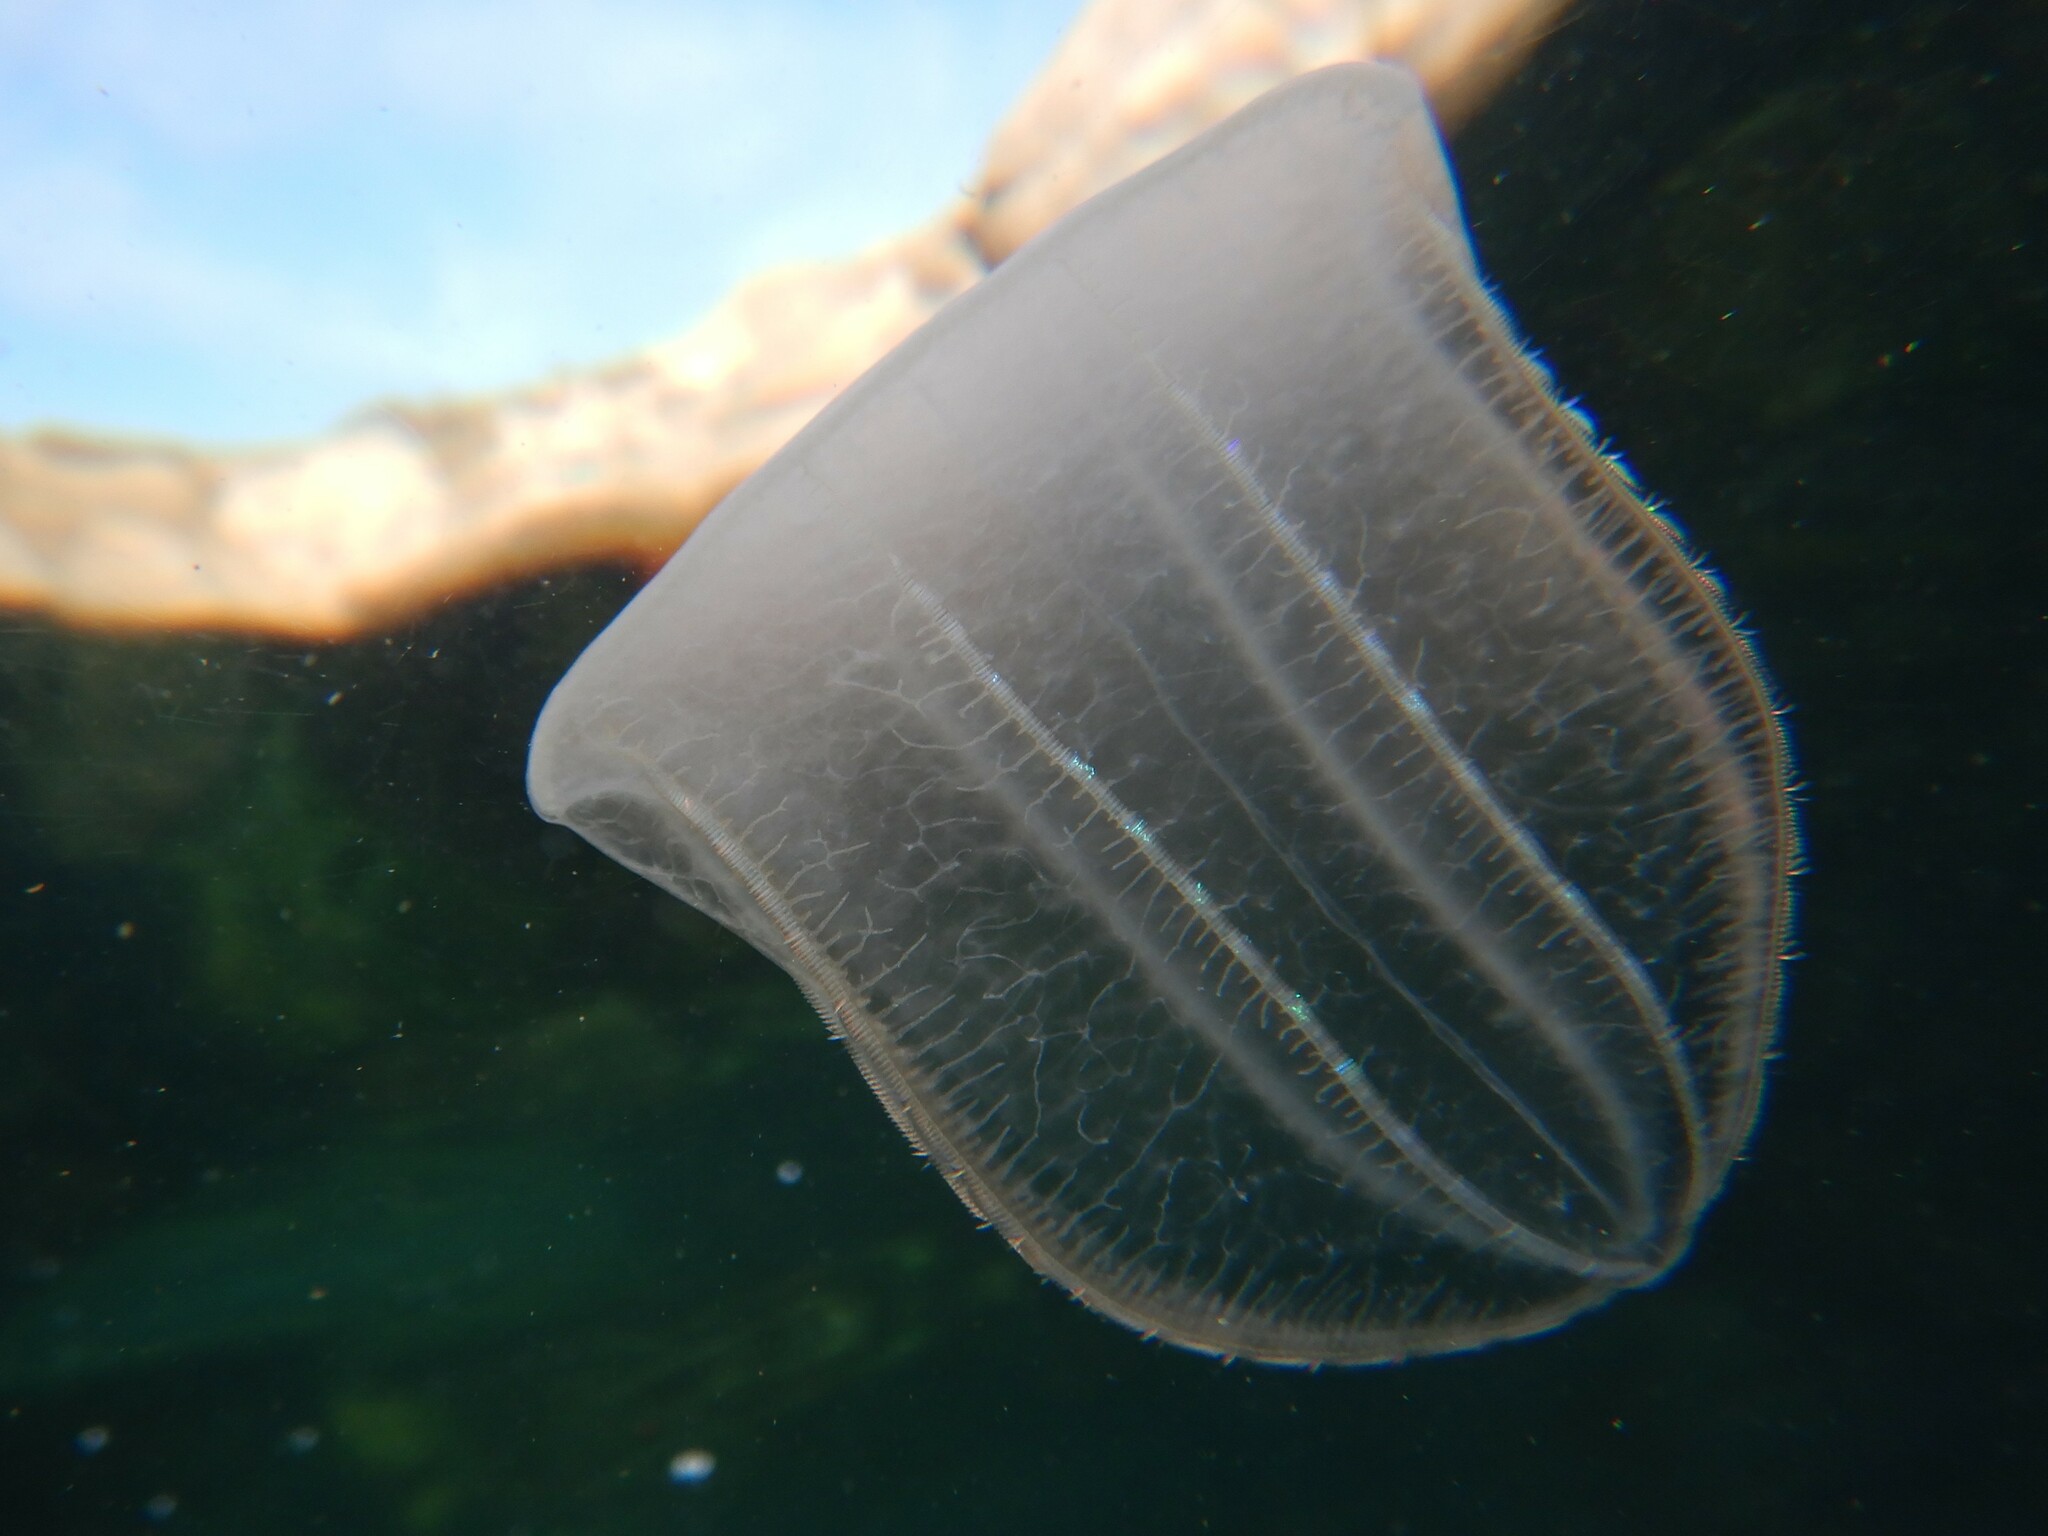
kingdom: Animalia
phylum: Ctenophora
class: Nuda
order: Beroida
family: Beroidae
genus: Beroe
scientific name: Beroe ovata
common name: Flattened helmet comb jelly
